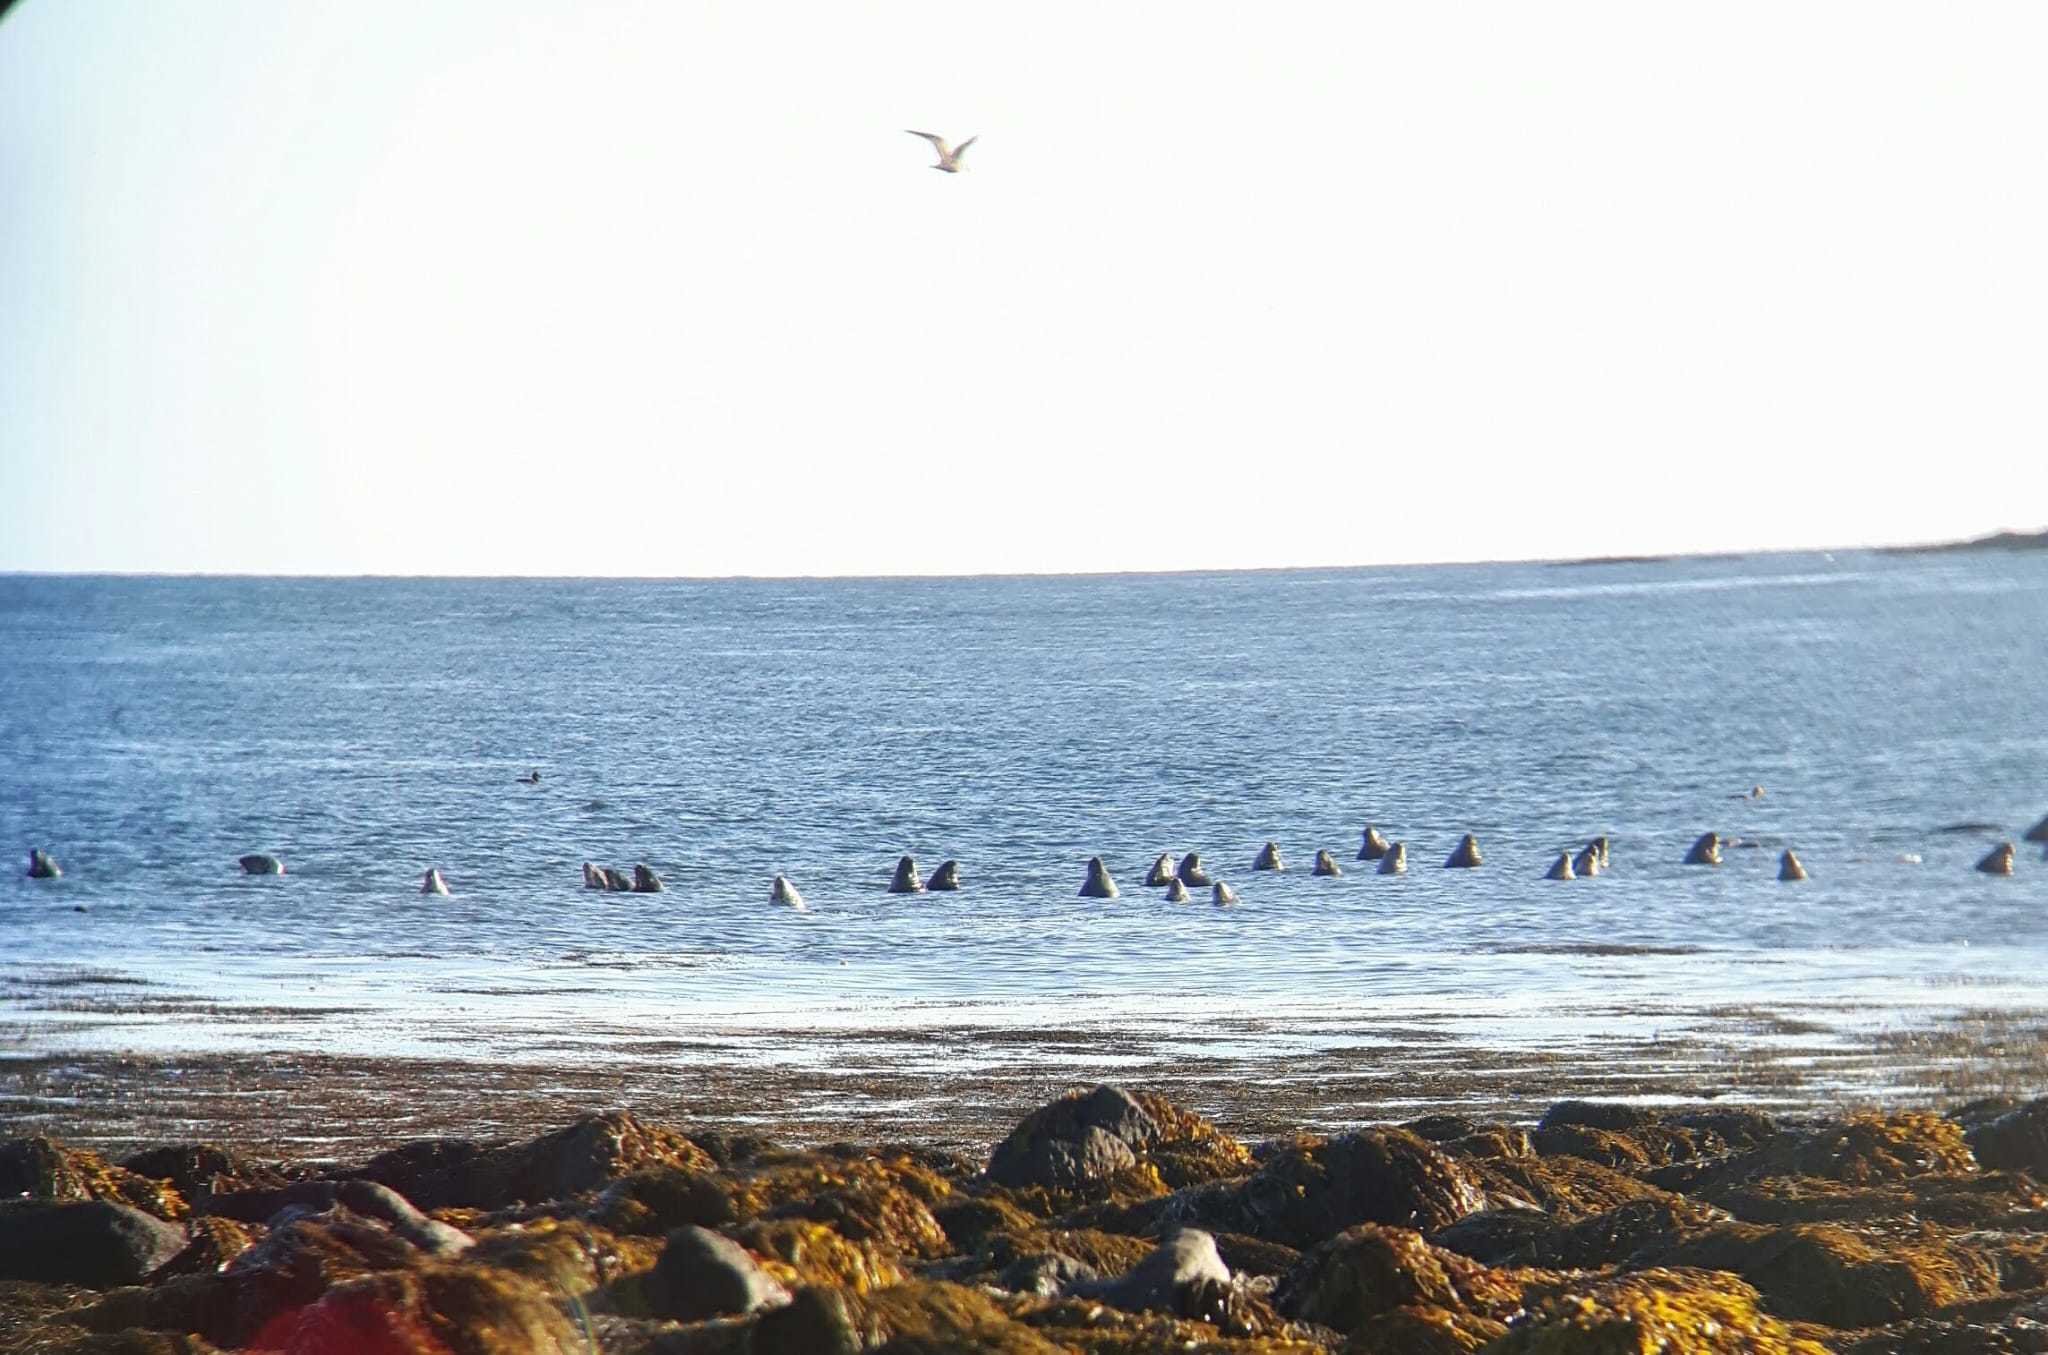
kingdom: Animalia
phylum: Chordata
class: Mammalia
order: Carnivora
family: Phocidae
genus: Halichoerus
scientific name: Halichoerus grypus
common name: Grey seal
